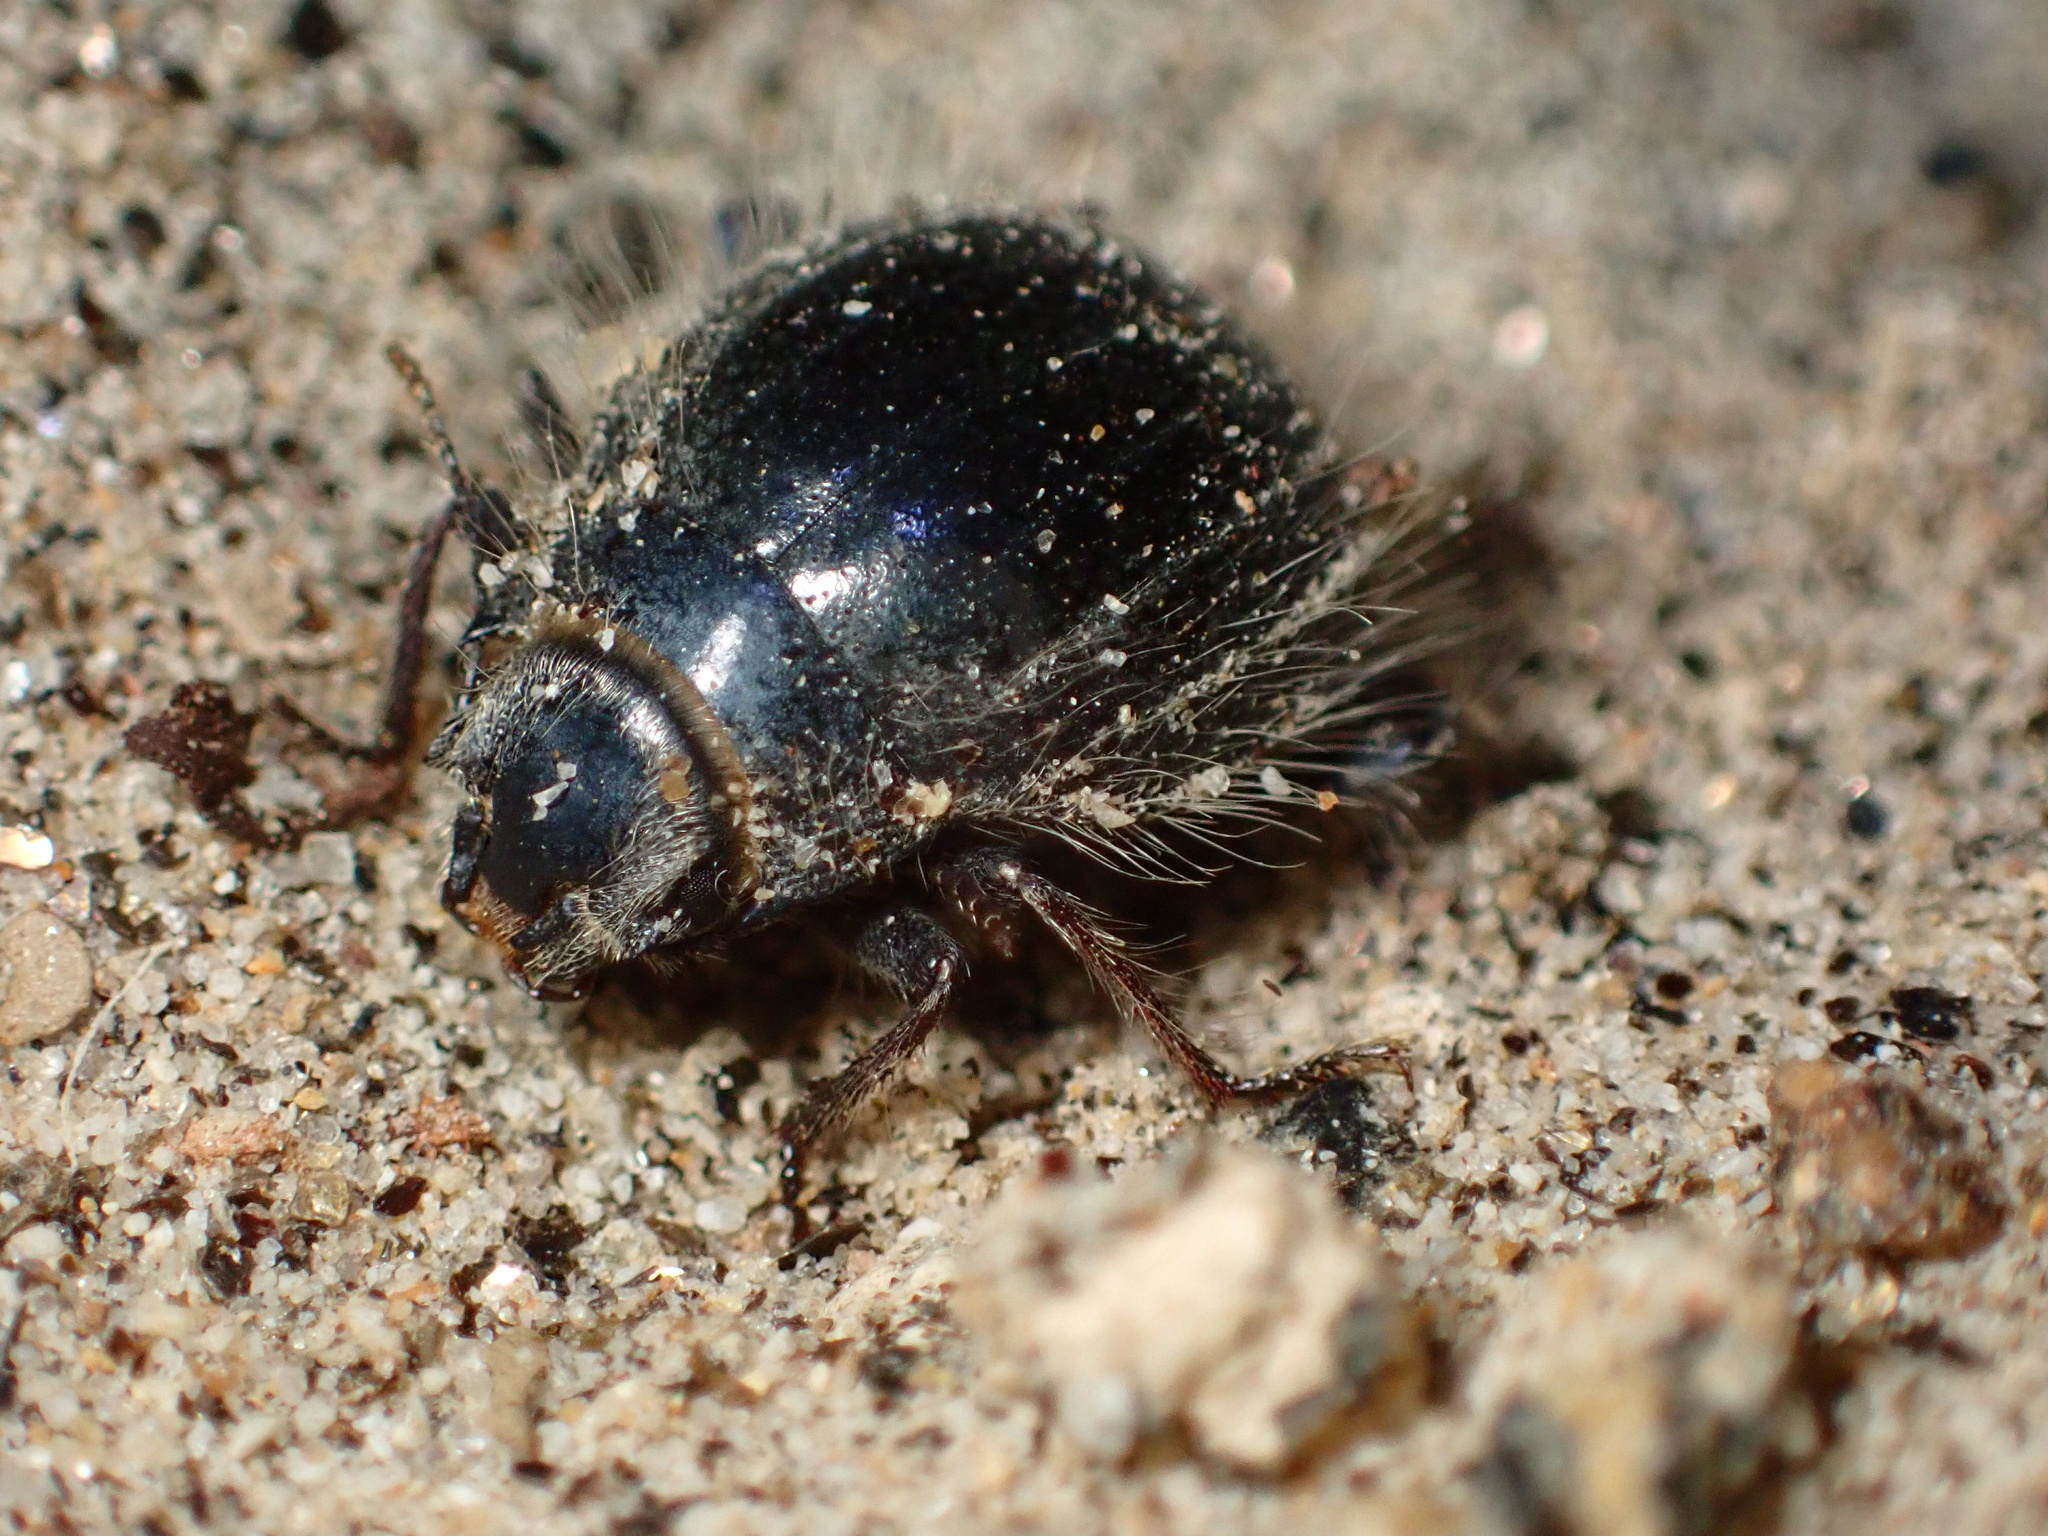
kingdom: Animalia
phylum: Arthropoda
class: Insecta
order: Coleoptera
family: Tenebrionidae
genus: Edrotes
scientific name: Edrotes ventricosus
